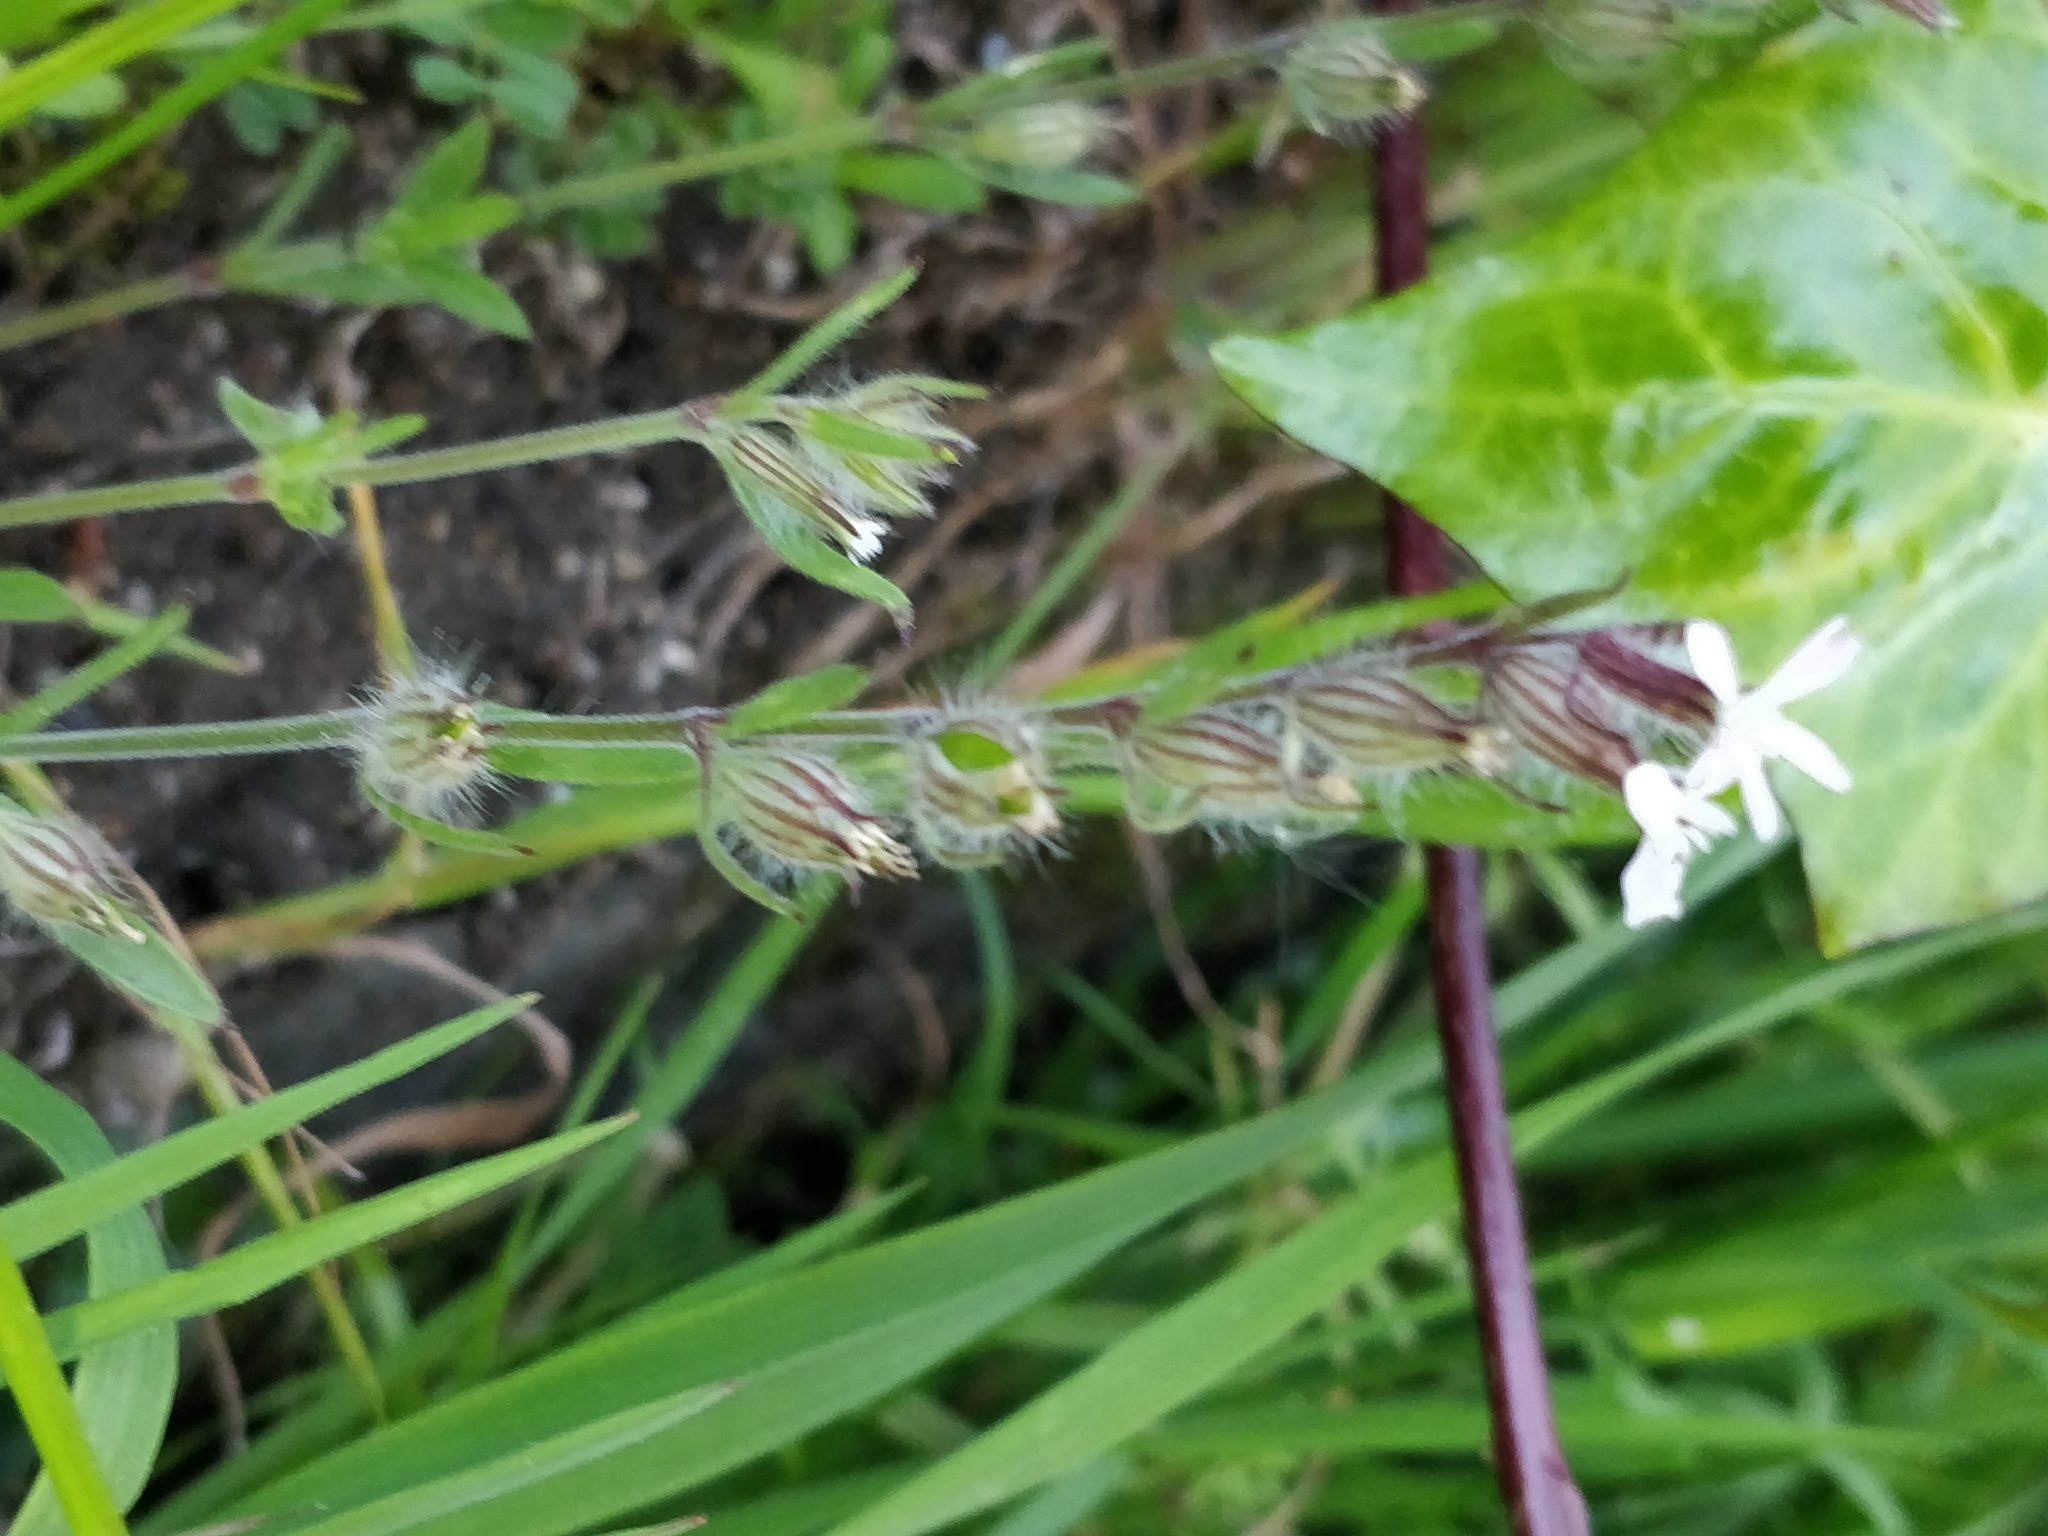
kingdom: Plantae
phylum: Tracheophyta
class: Magnoliopsida
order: Caryophyllales
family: Caryophyllaceae
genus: Silene
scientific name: Silene gallica
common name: Small-flowered catchfly
